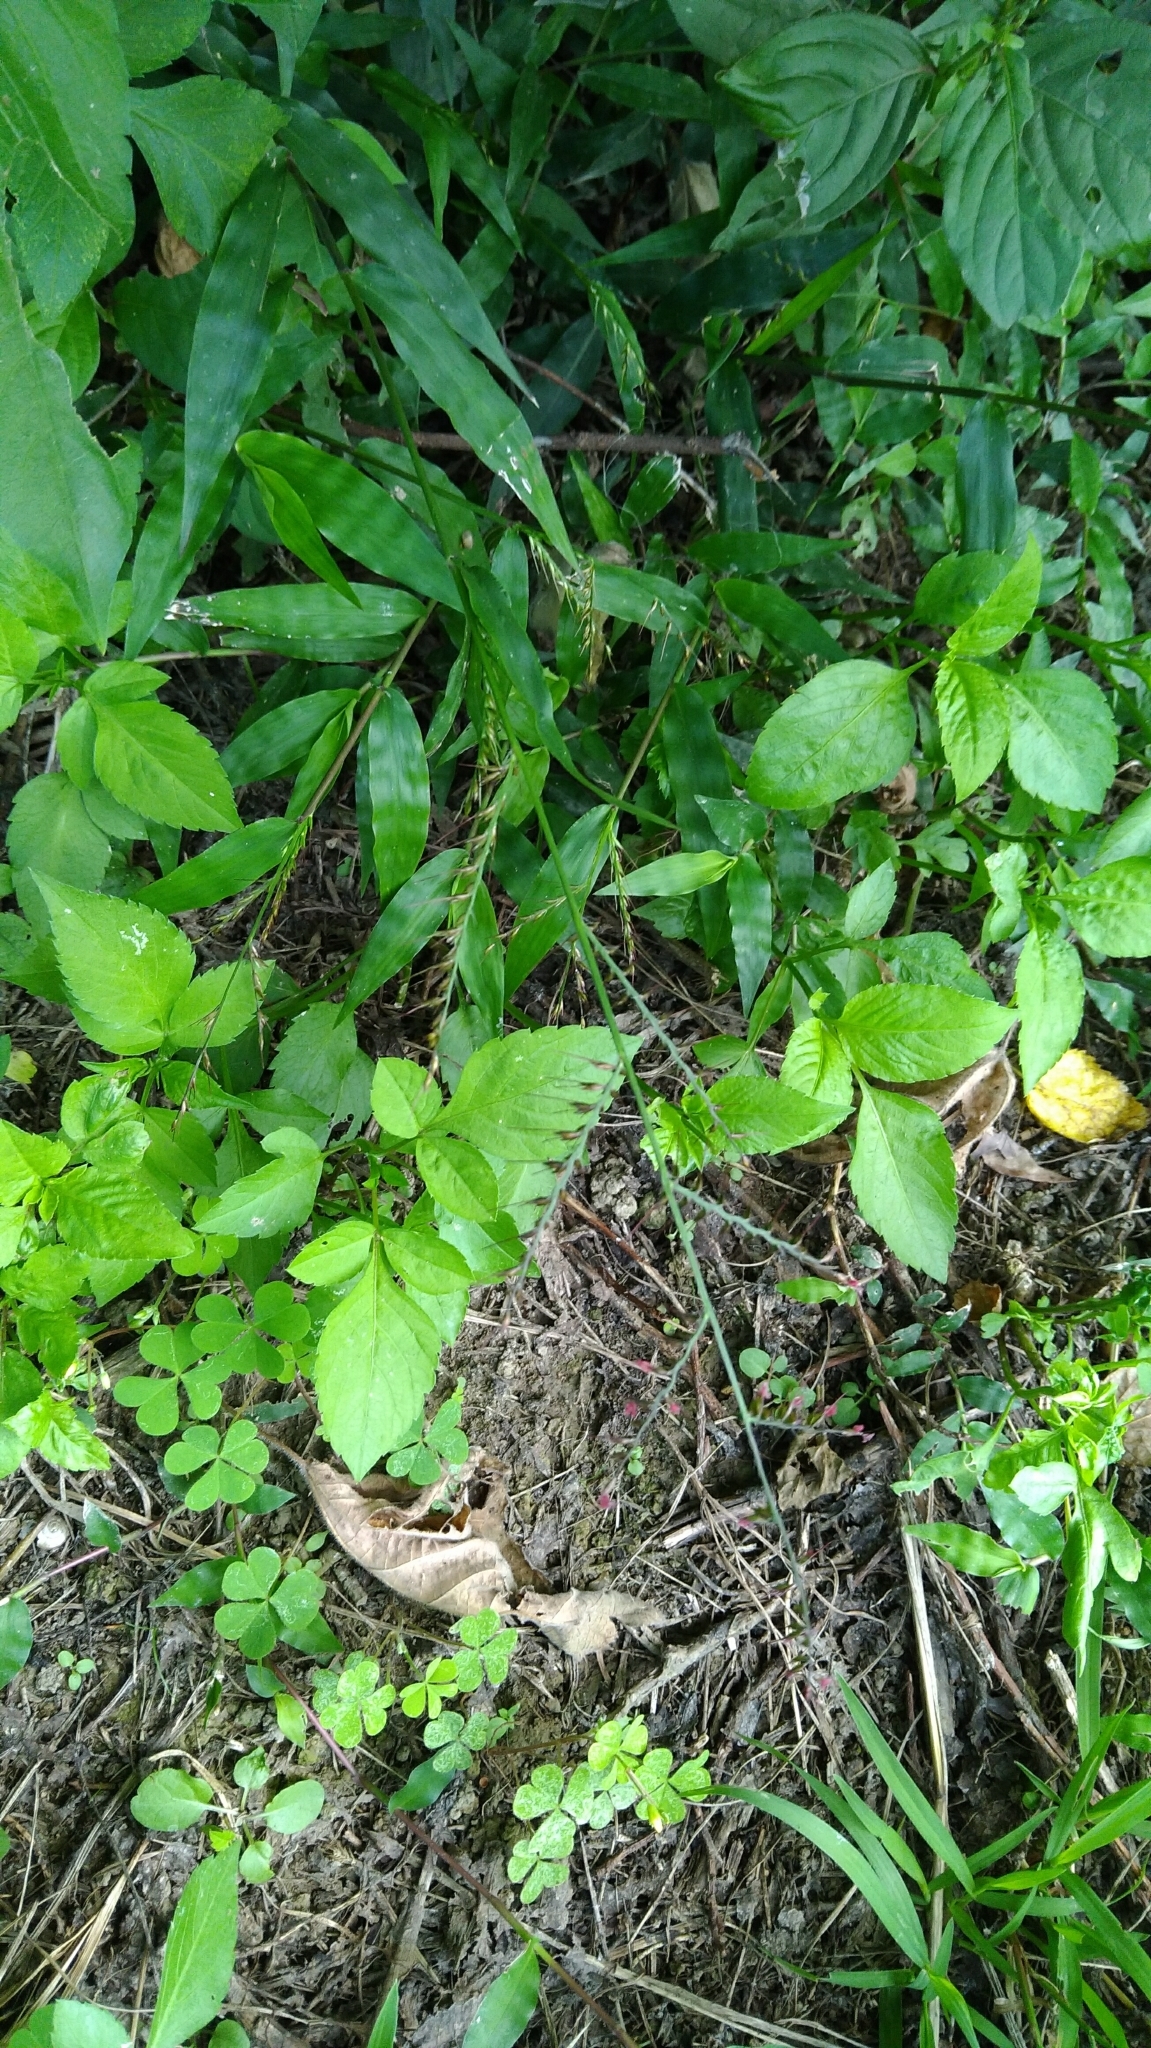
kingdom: Plantae
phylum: Tracheophyta
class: Liliopsida
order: Poales
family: Poaceae
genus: Oplismenus
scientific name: Oplismenus compositus
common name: Running mountain grass
